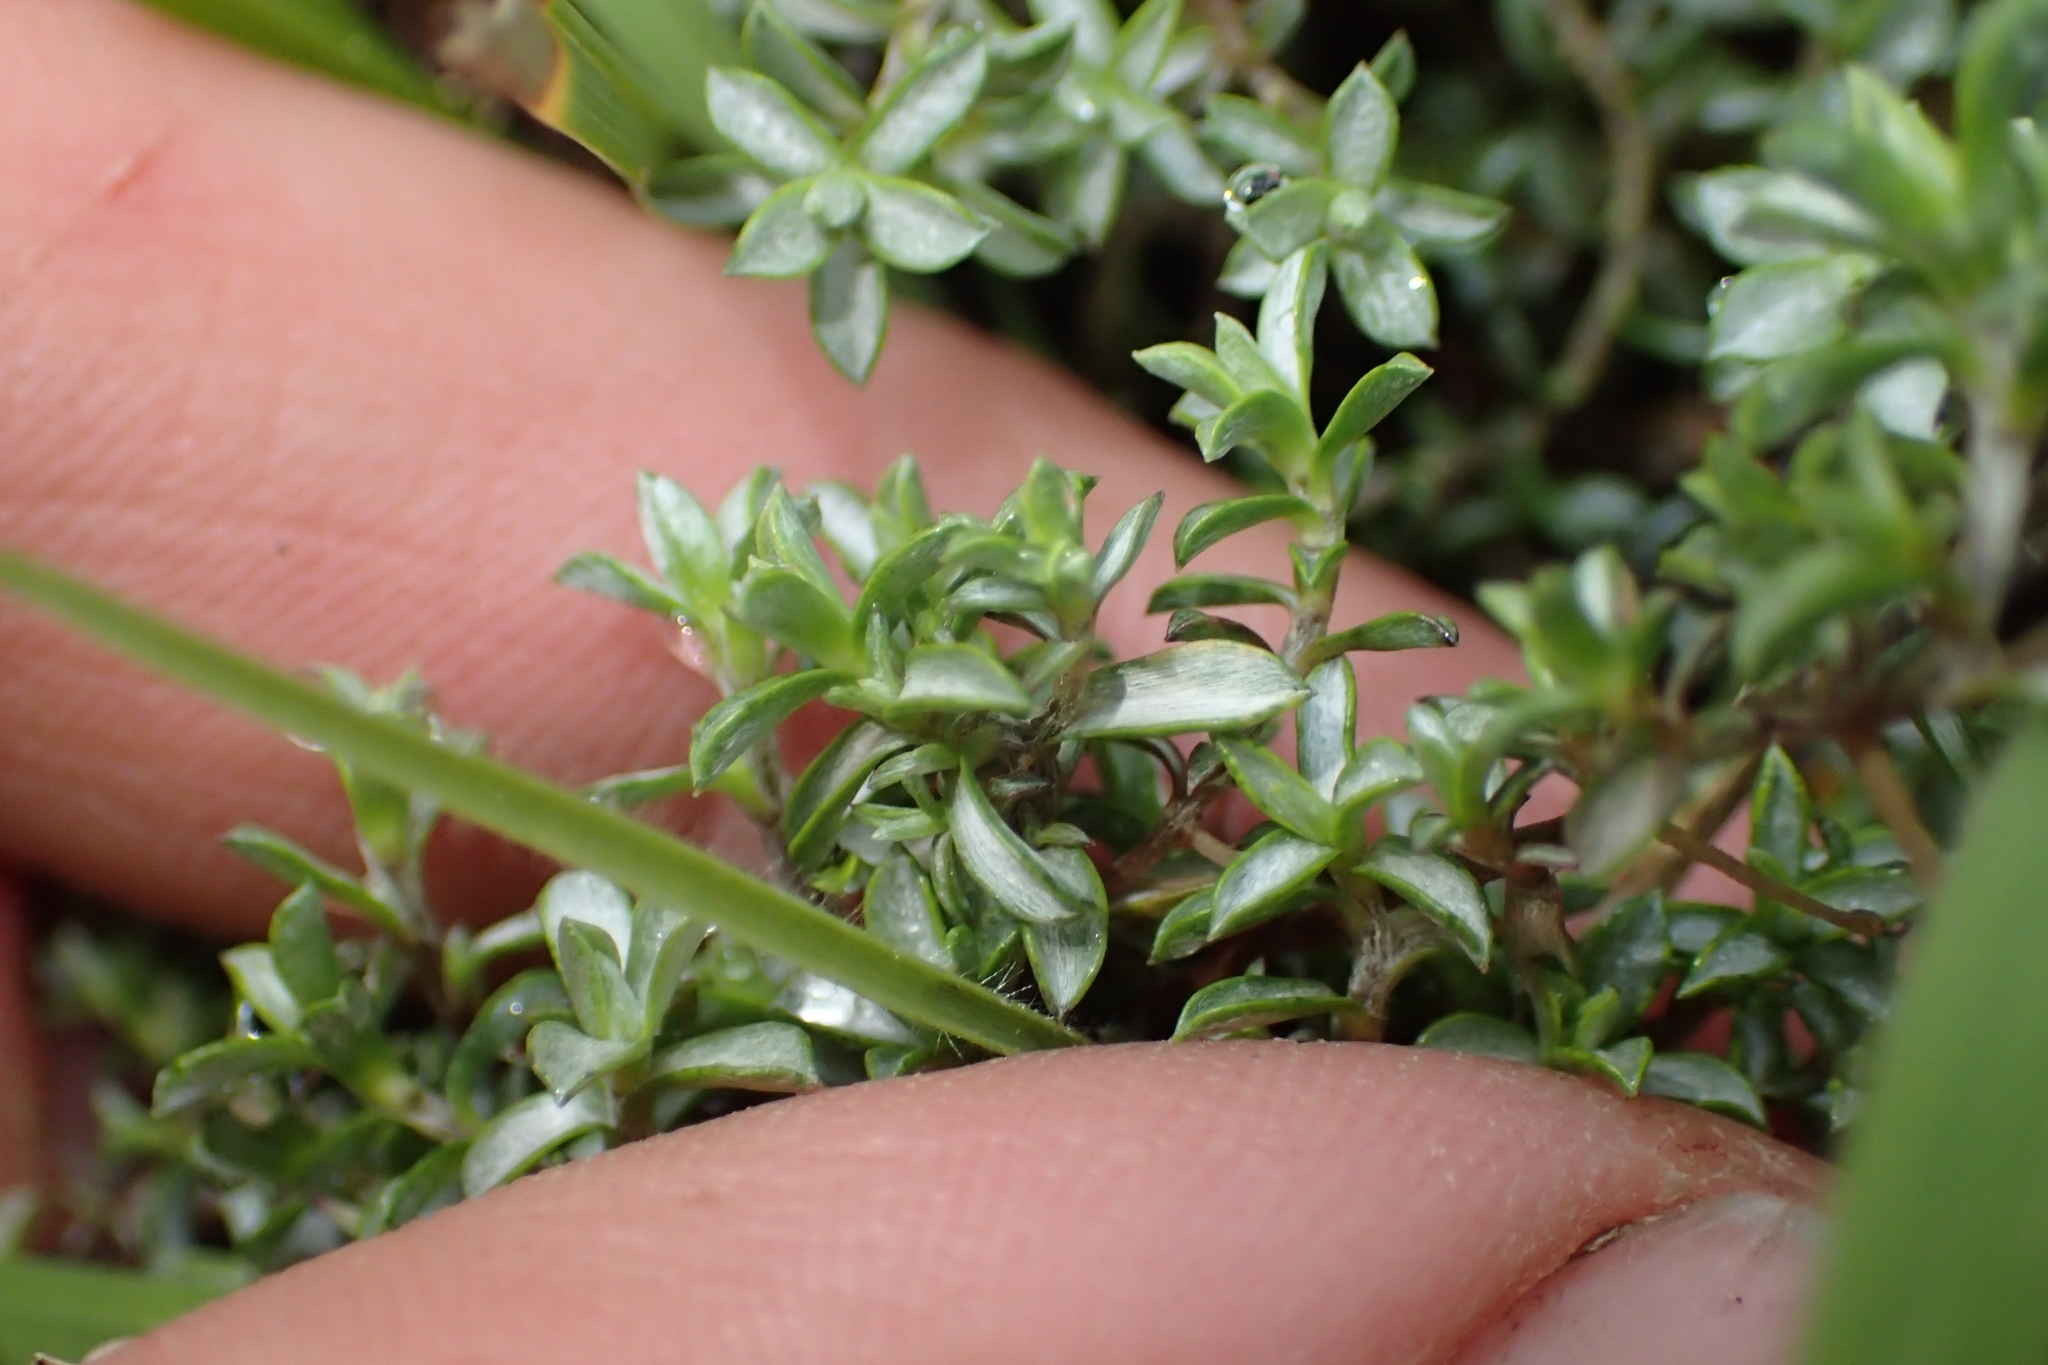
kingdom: Plantae
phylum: Tracheophyta
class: Magnoliopsida
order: Asterales
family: Asteraceae
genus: Raoulia
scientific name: Raoulia tenuicaulis
